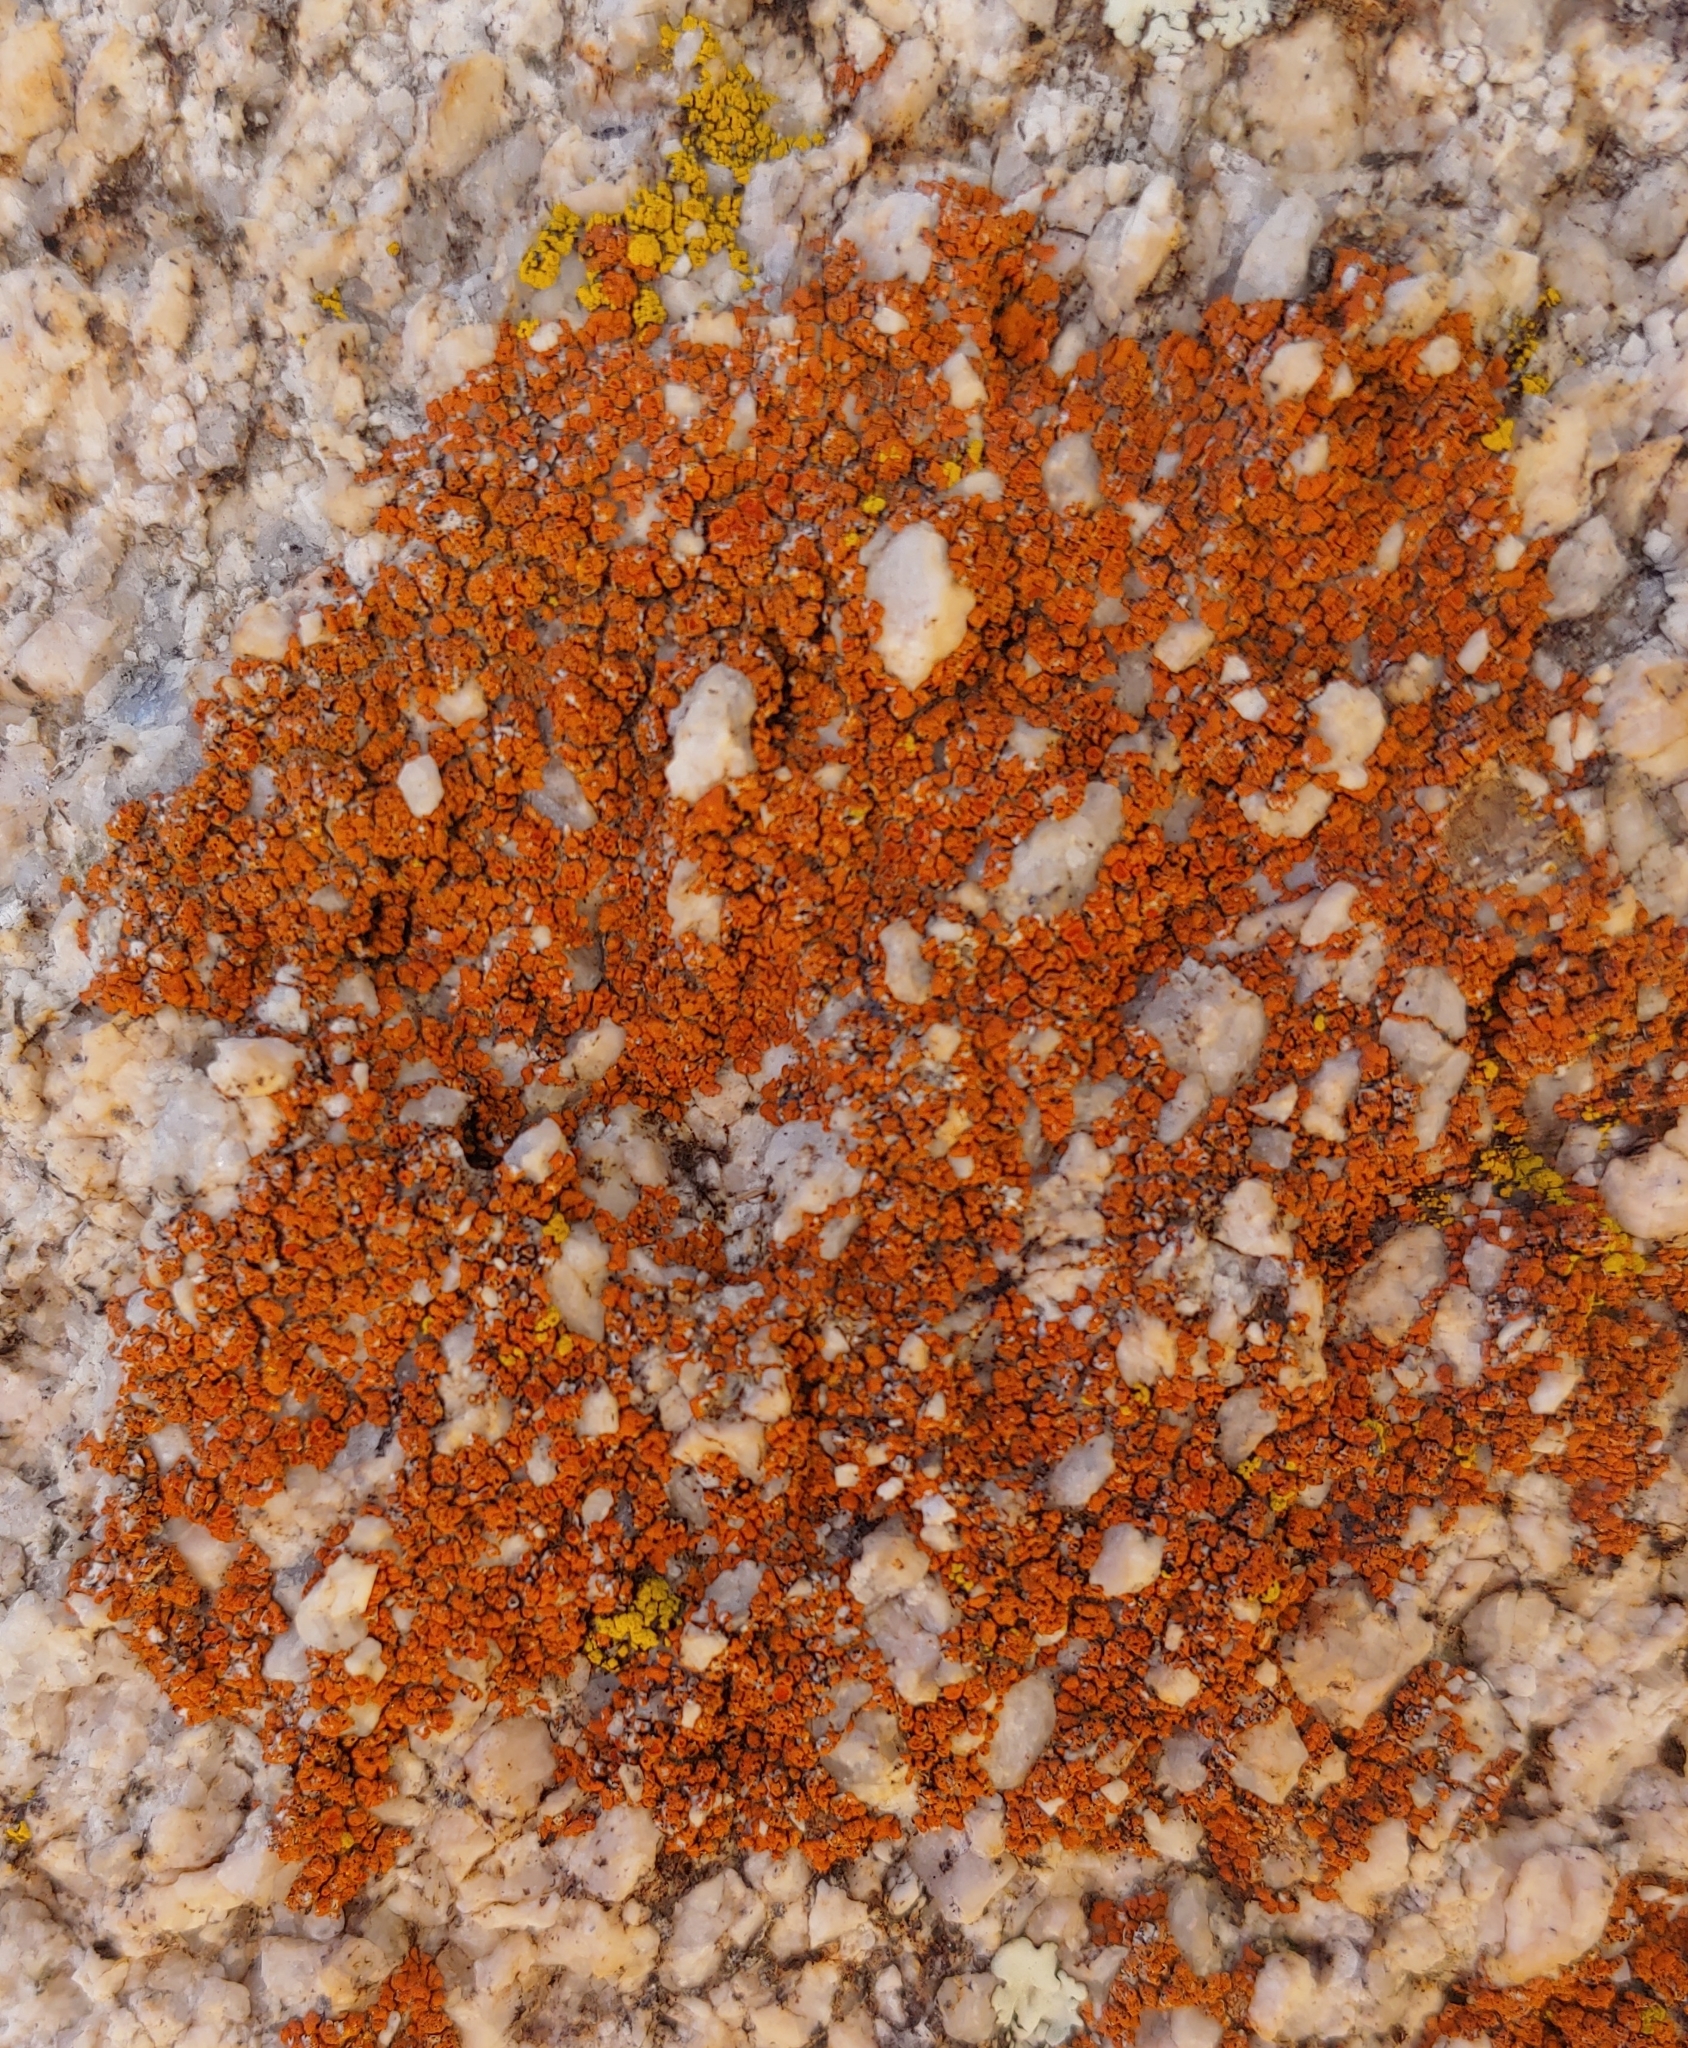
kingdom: Fungi
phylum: Ascomycota
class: Lecanoromycetes
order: Teloschistales
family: Teloschistaceae
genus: Xanthoria
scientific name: Xanthoria elegans
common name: Elegant sunburst lichen
